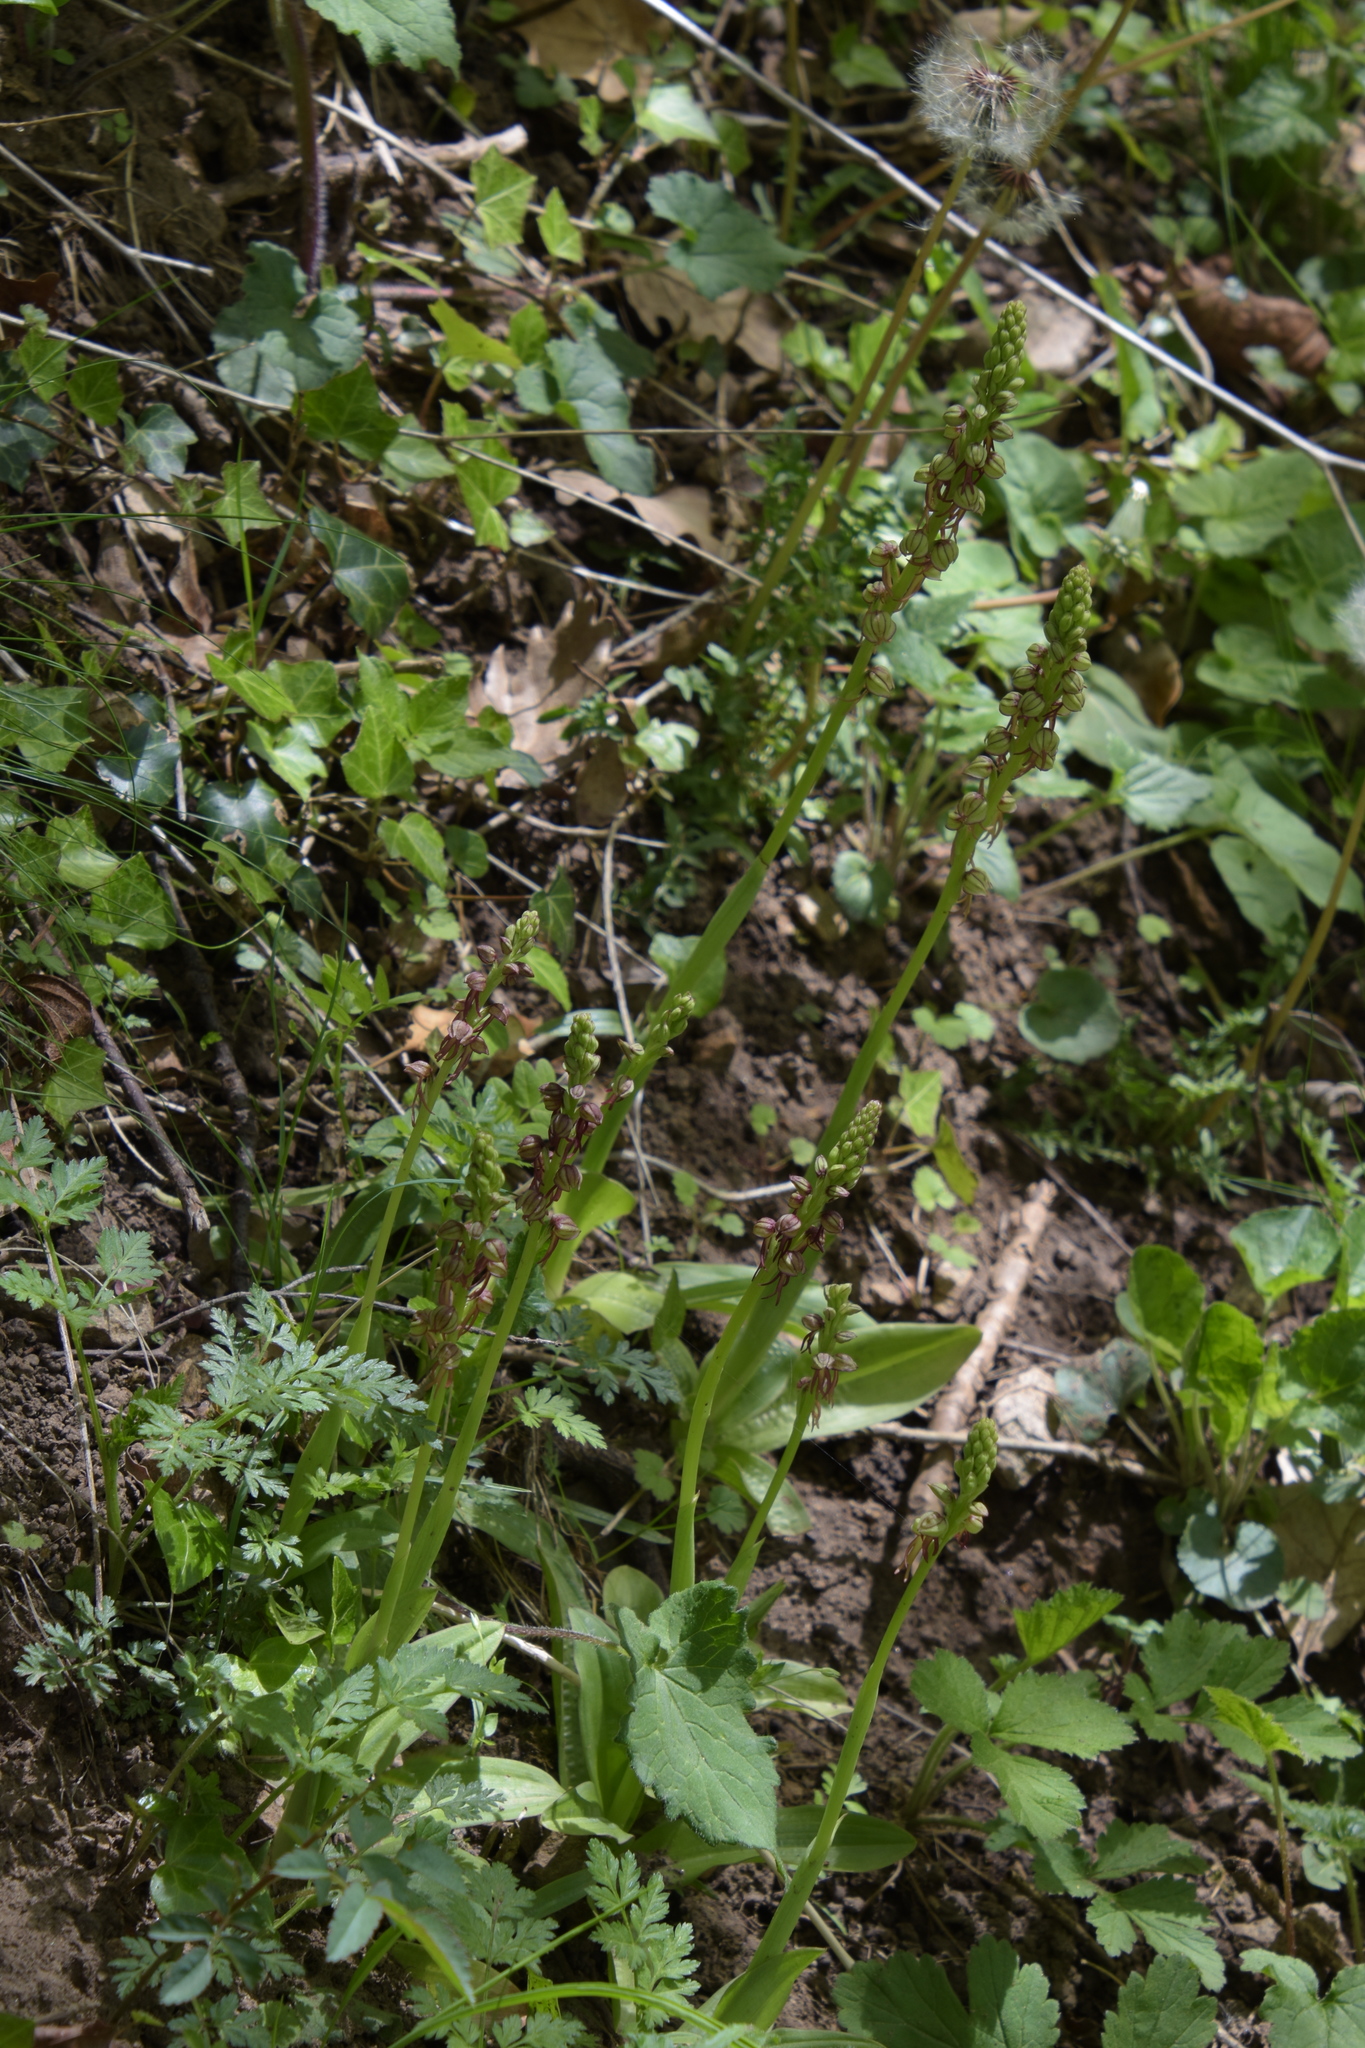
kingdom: Plantae
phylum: Tracheophyta
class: Liliopsida
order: Asparagales
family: Orchidaceae
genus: Orchis
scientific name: Orchis anthropophora
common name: Man orchid
